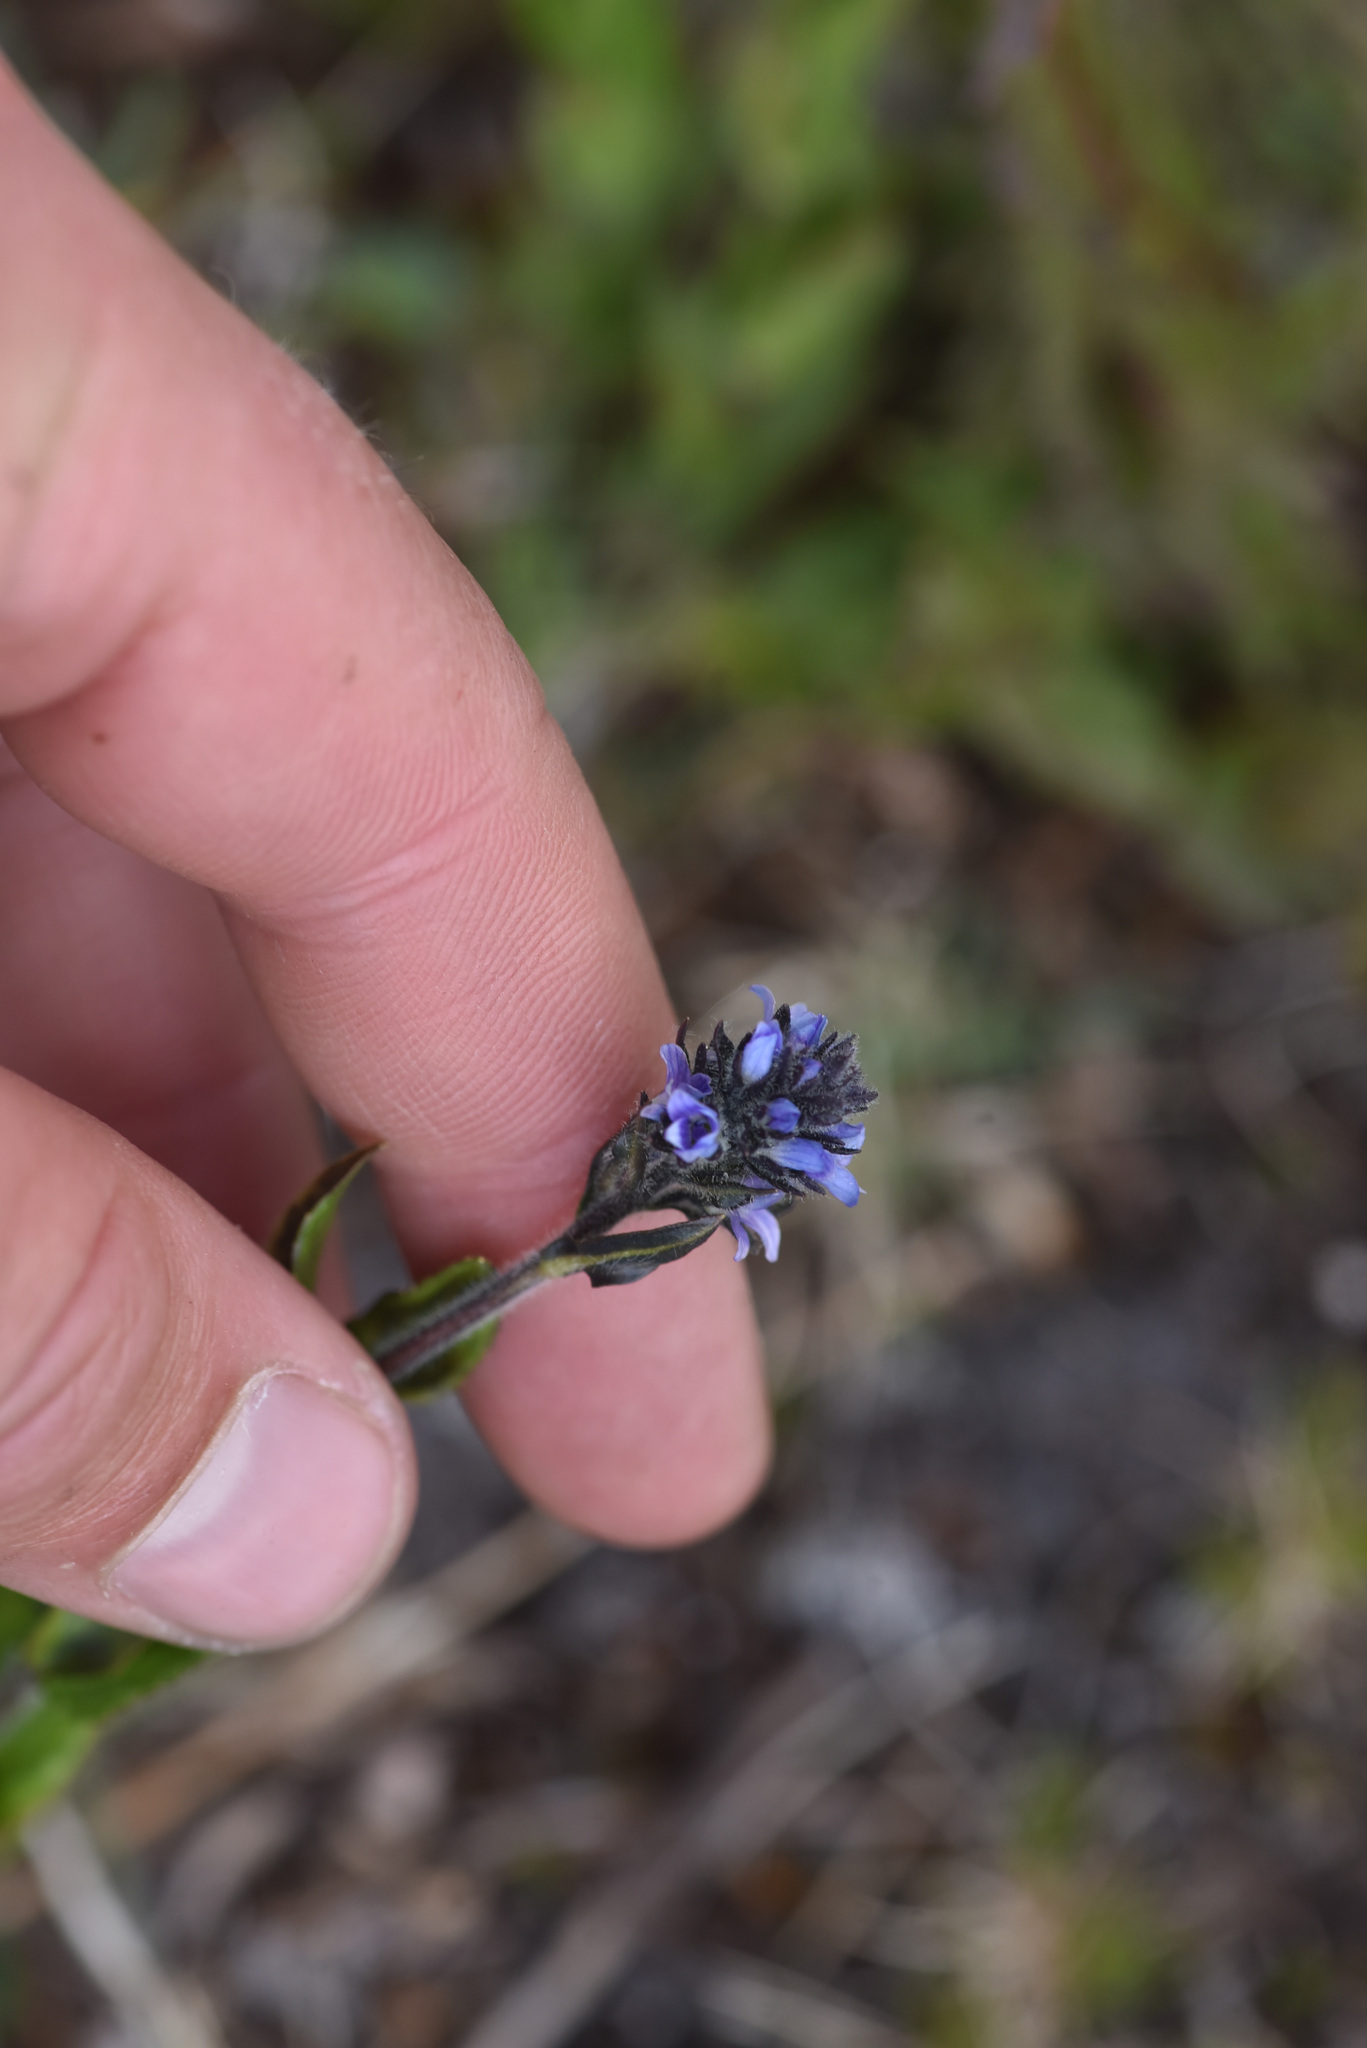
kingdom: Plantae
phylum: Tracheophyta
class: Magnoliopsida
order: Lamiales
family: Plantaginaceae
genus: Veronica
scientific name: Veronica wormskjoldii
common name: American alpine speedwell
